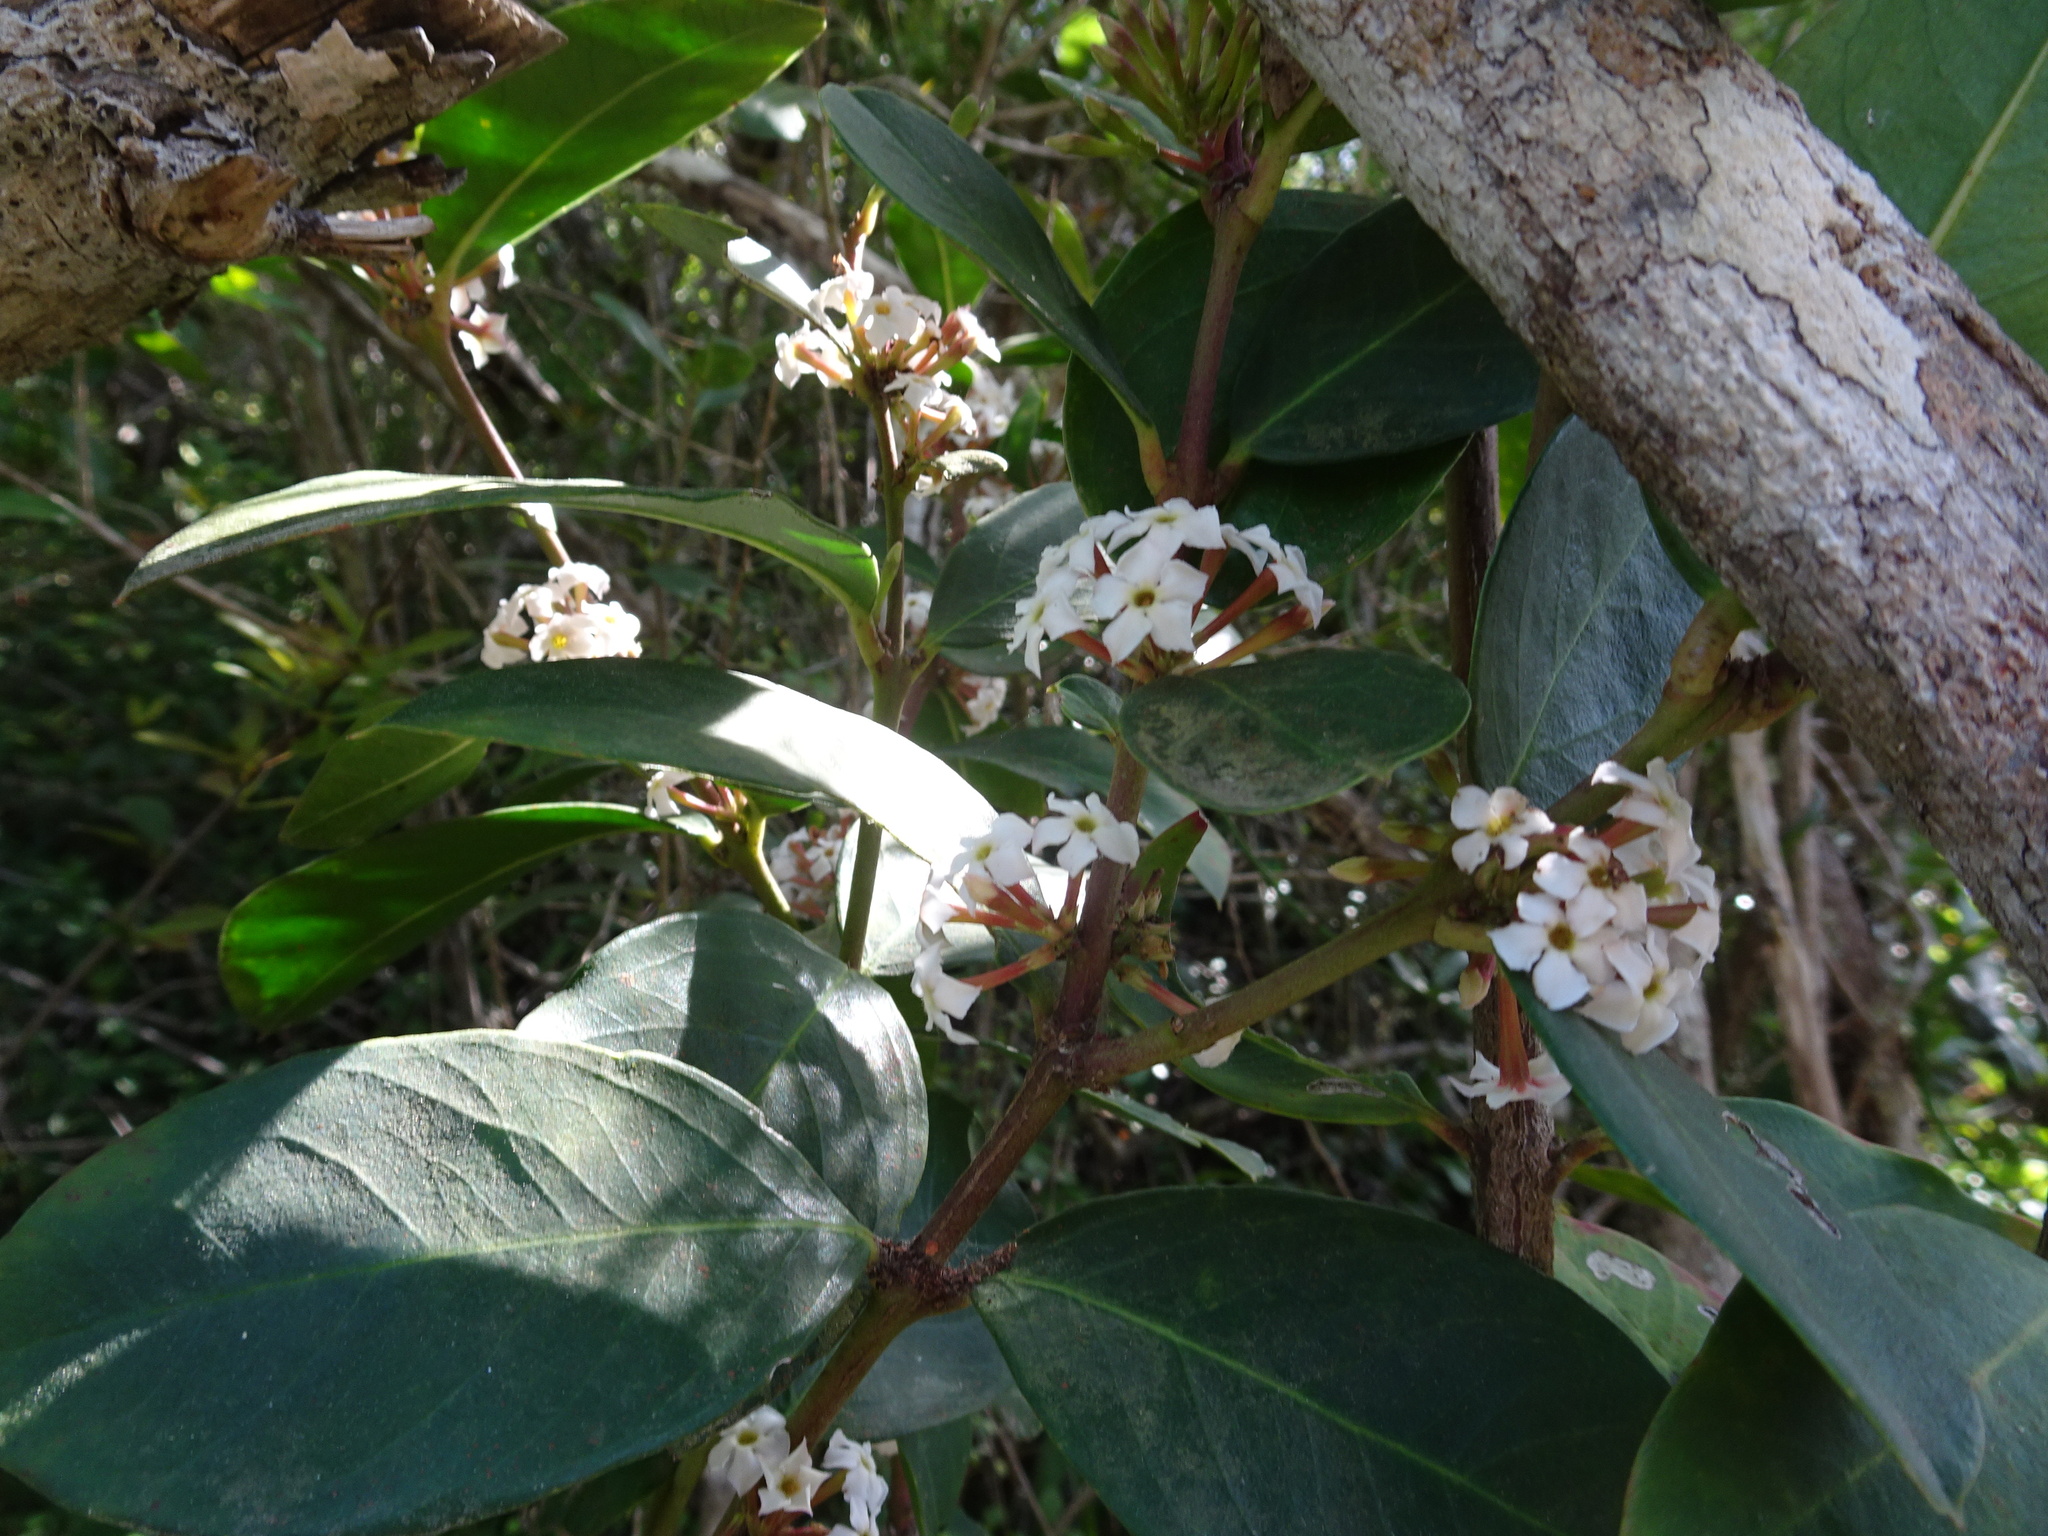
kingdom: Plantae
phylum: Tracheophyta
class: Magnoliopsida
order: Gentianales
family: Apocynaceae
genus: Acokanthera
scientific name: Acokanthera oppositifolia
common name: Bushman's-poison
